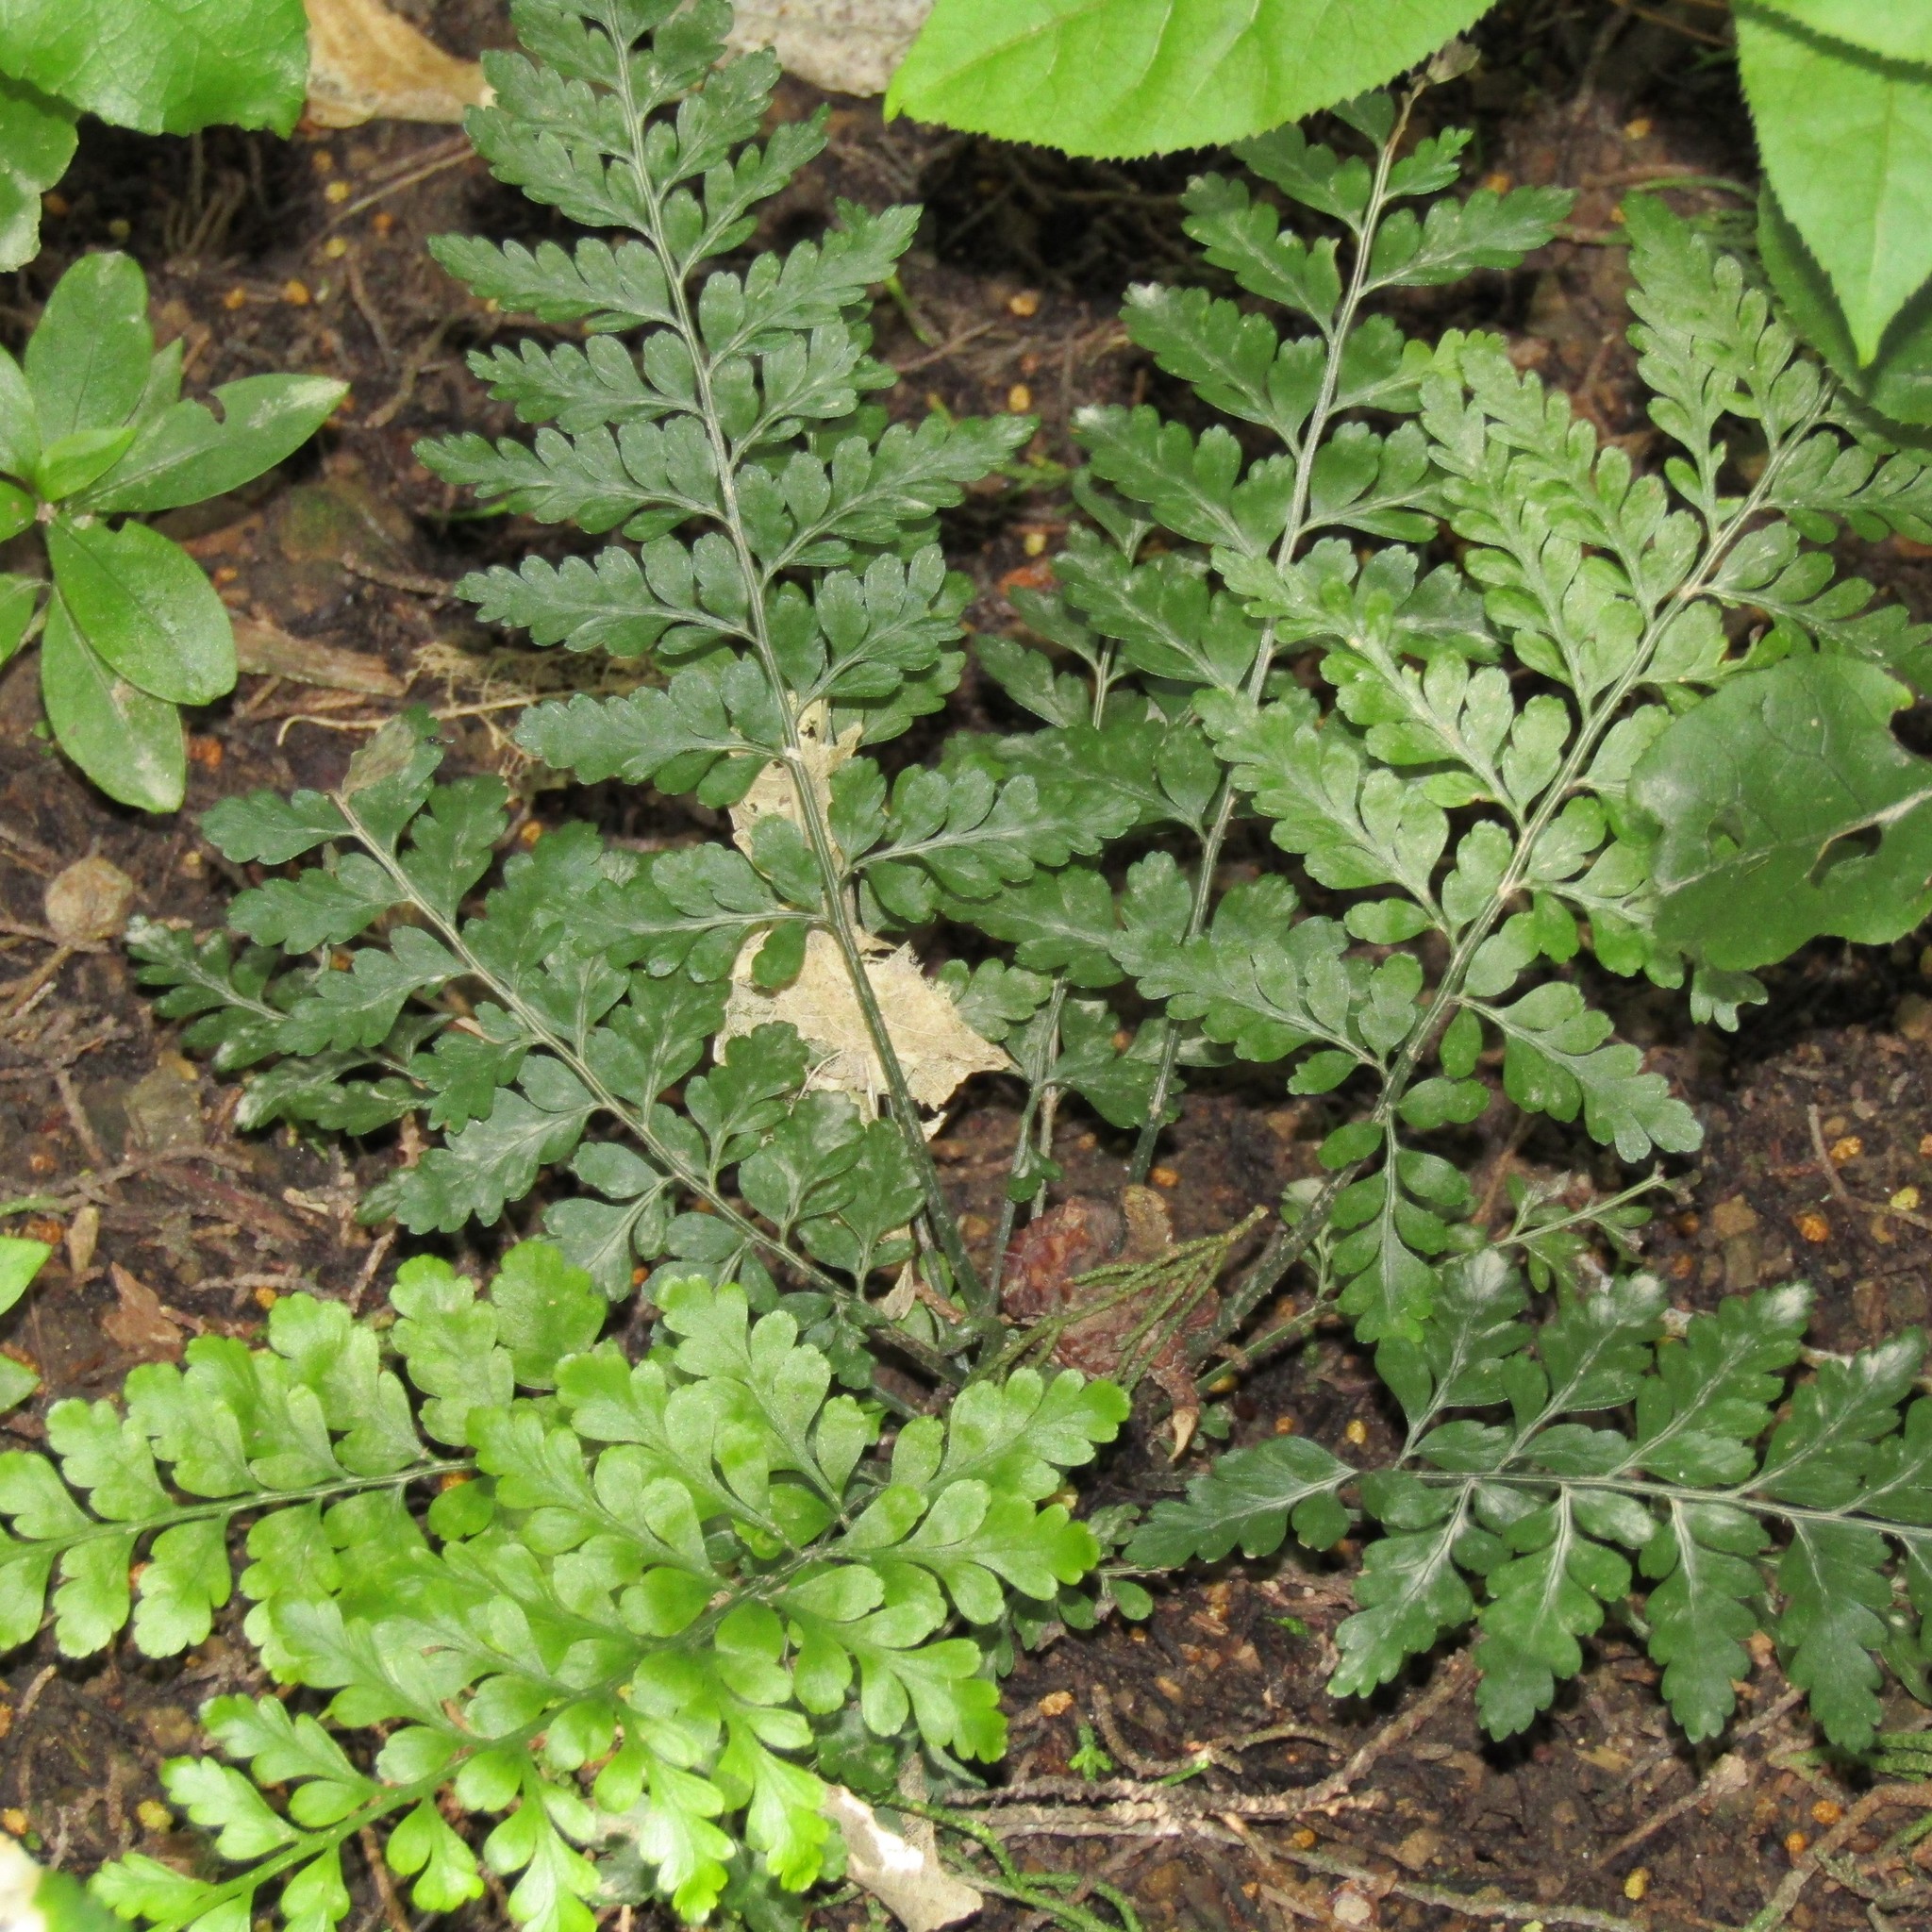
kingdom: Plantae
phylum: Tracheophyta
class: Polypodiopsida
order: Polypodiales
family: Aspleniaceae
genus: Asplenium
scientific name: Asplenium
